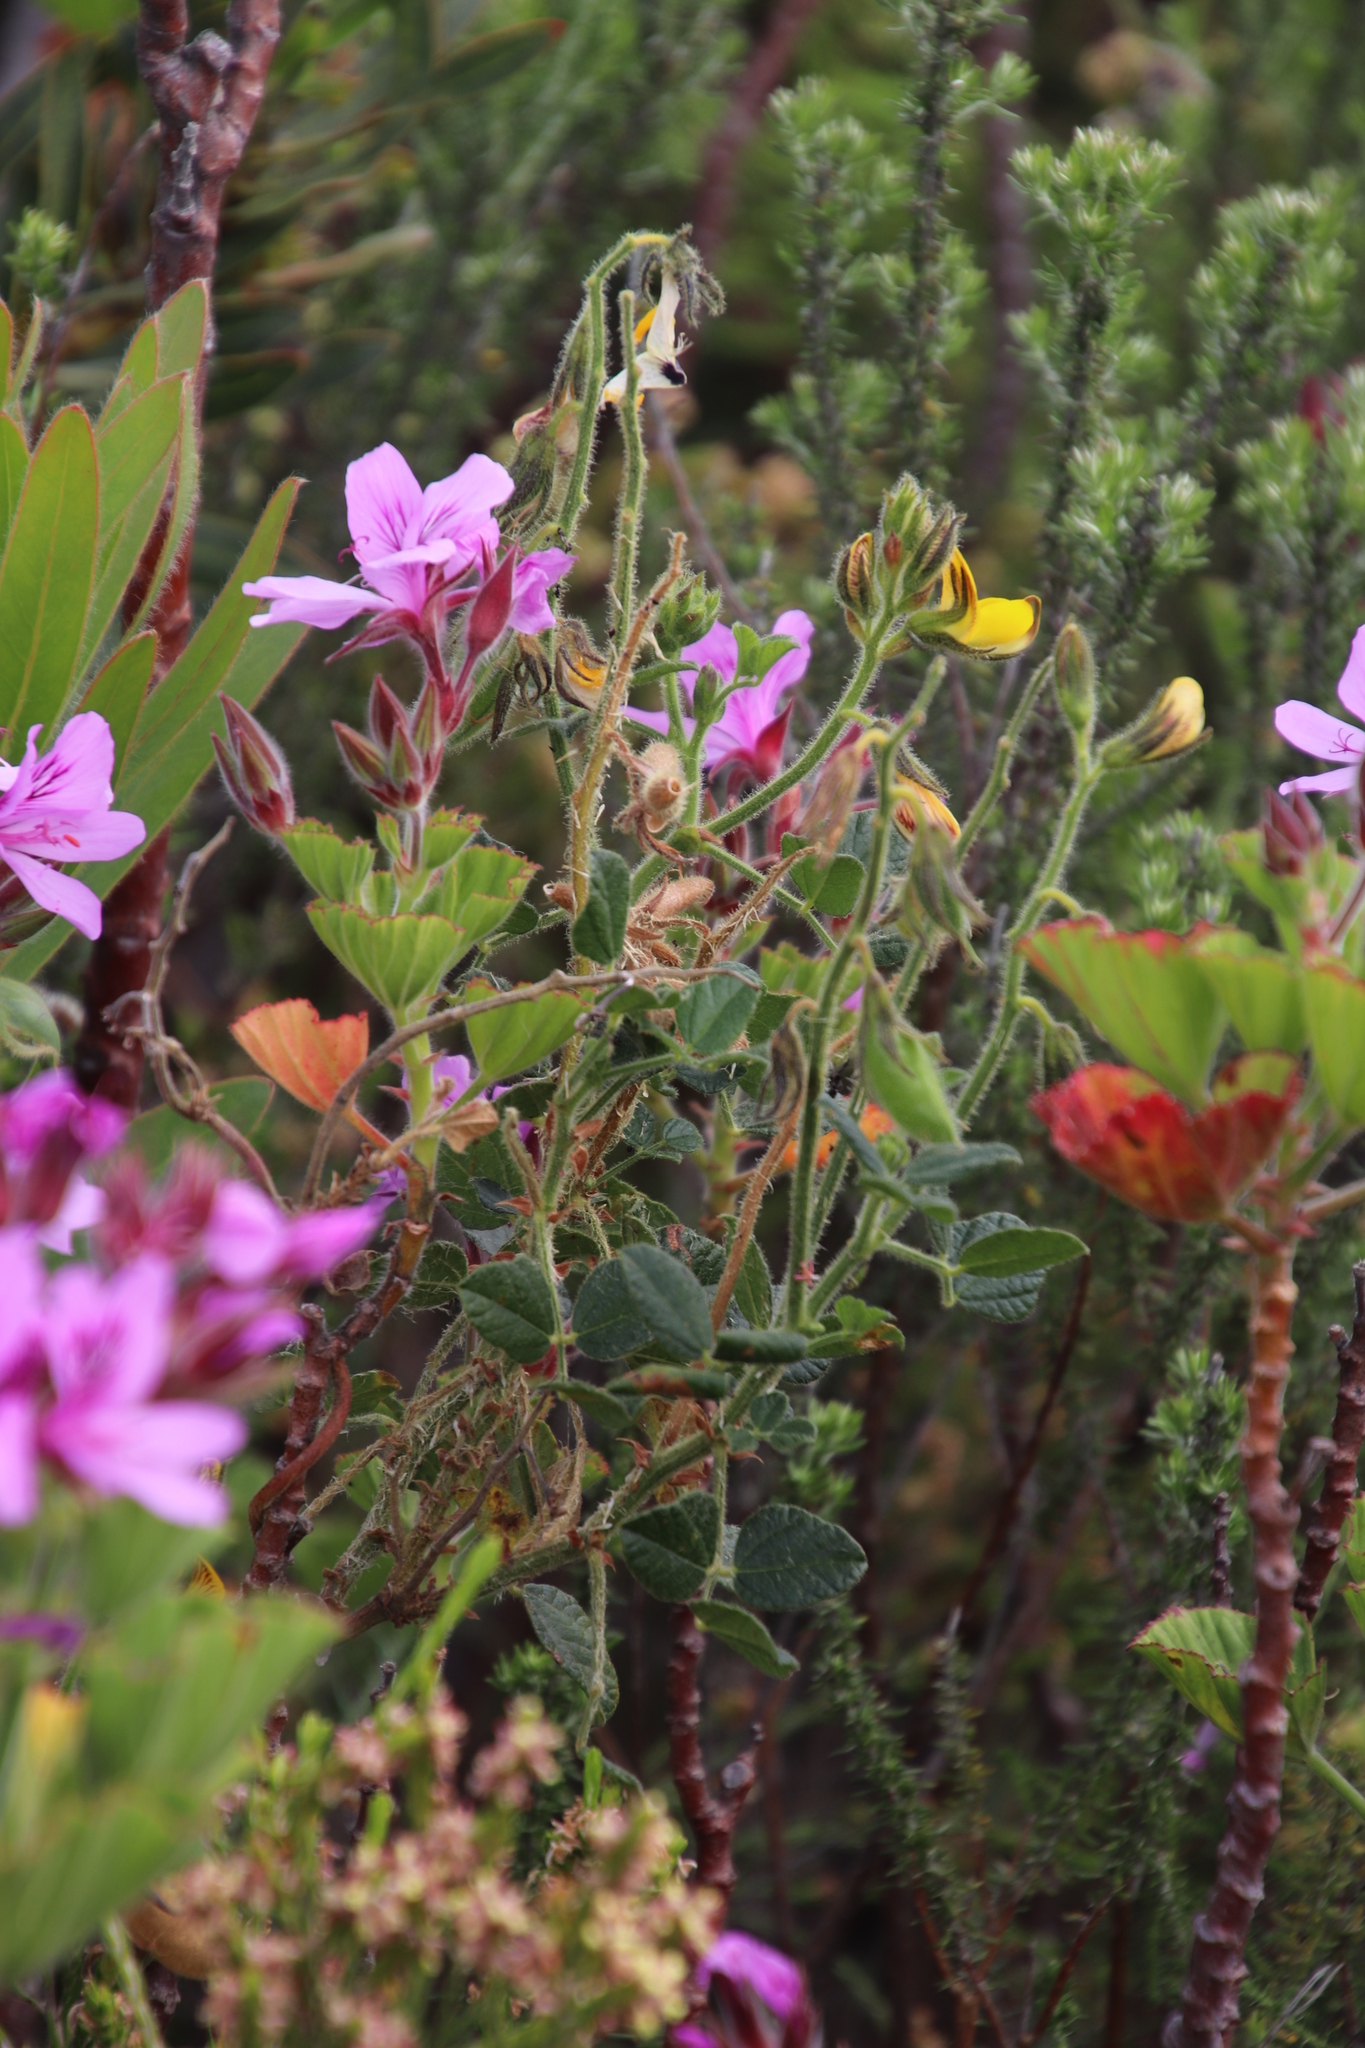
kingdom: Plantae
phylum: Tracheophyta
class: Magnoliopsida
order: Fabales
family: Fabaceae
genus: Bolusafra
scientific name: Bolusafra bituminosa
